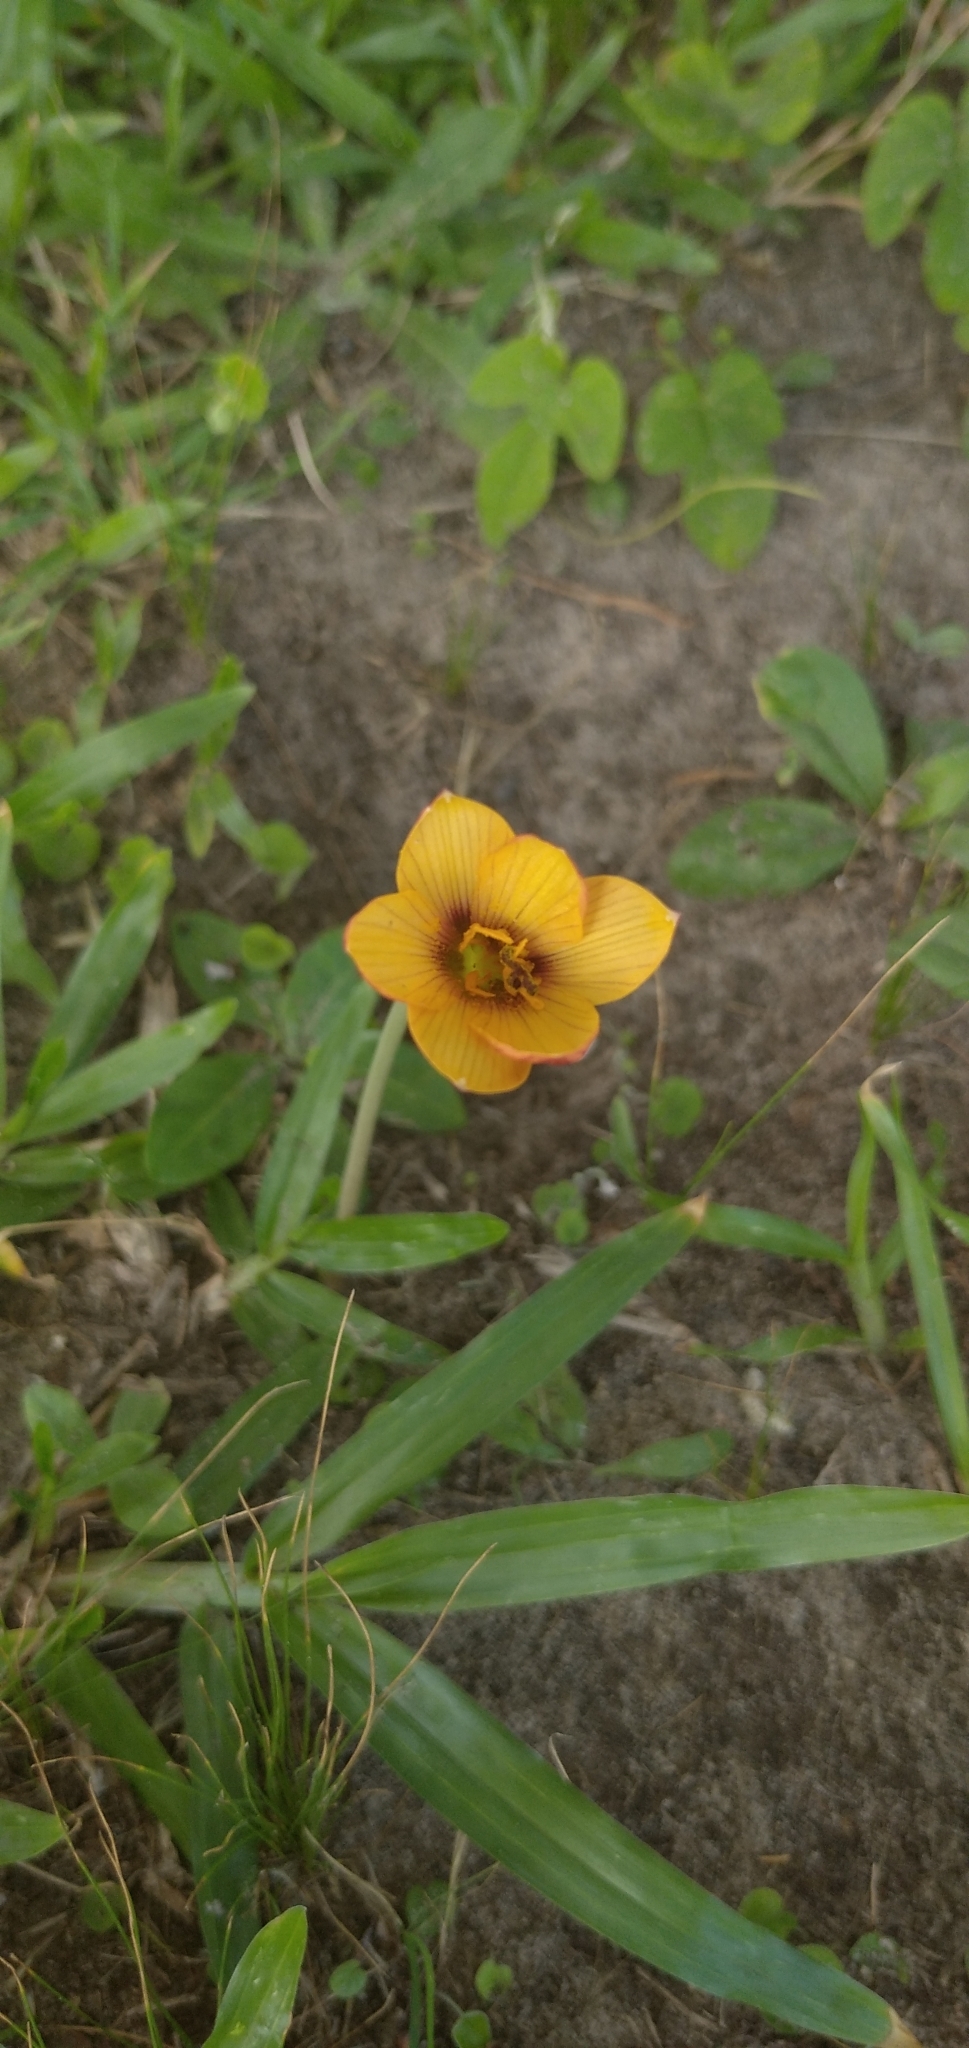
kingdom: Plantae
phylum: Tracheophyta
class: Liliopsida
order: Asparagales
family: Amaryllidaceae
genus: Zephyranthes
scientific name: Zephyranthes tubispatha
